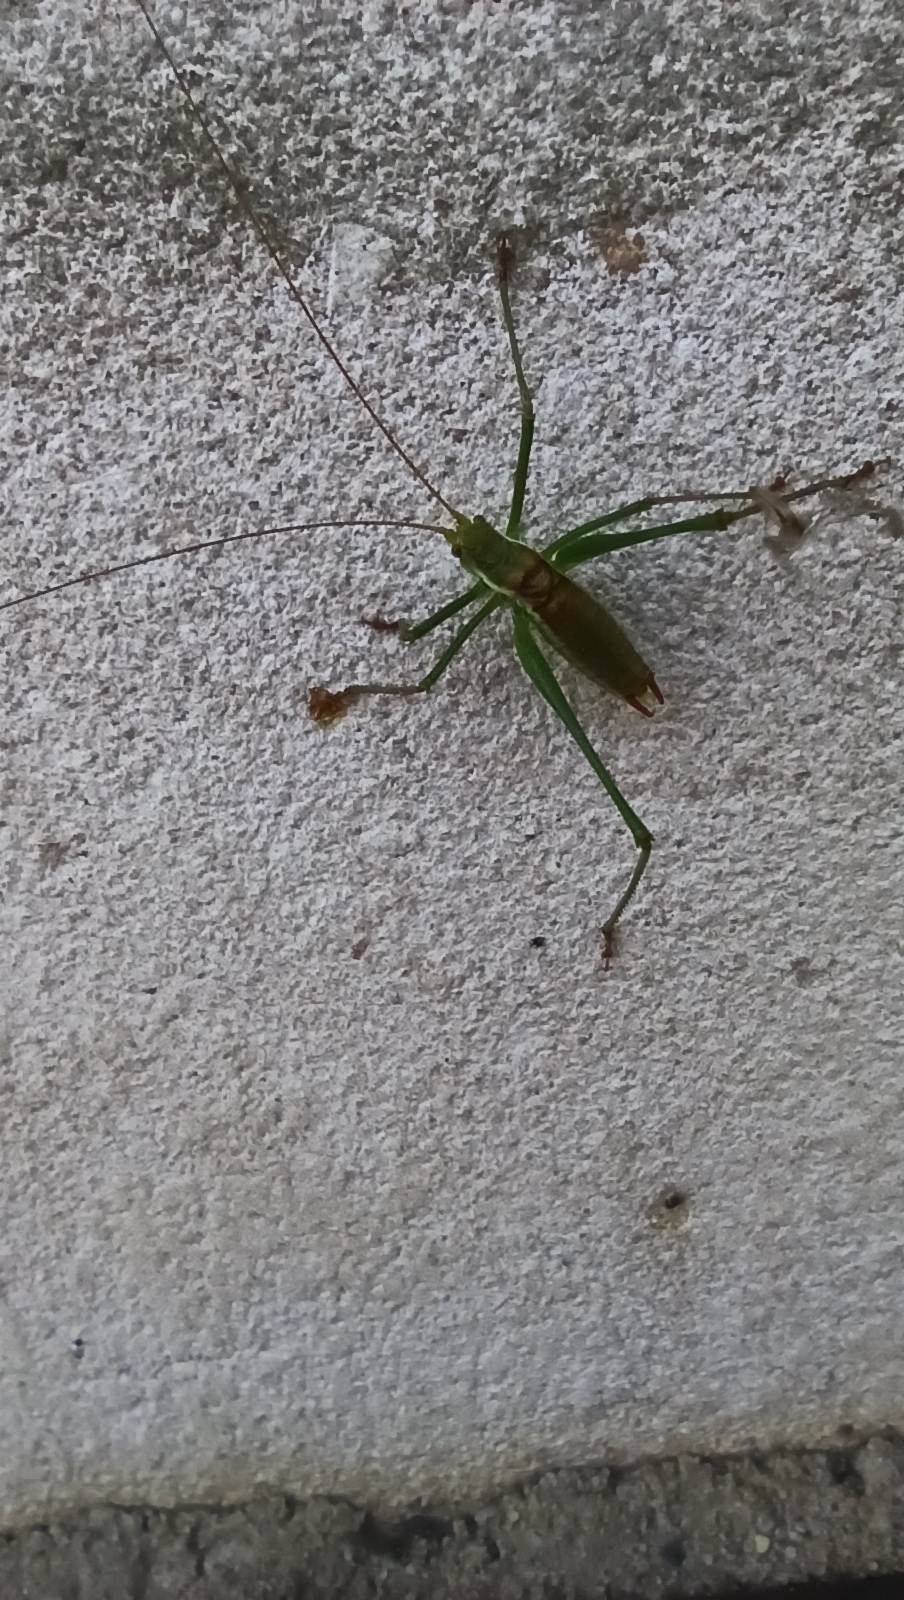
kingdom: Animalia
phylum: Arthropoda
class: Insecta
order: Orthoptera
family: Tettigoniidae
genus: Leptophyes
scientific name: Leptophyes albovittata
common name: Striped bush-cricket
